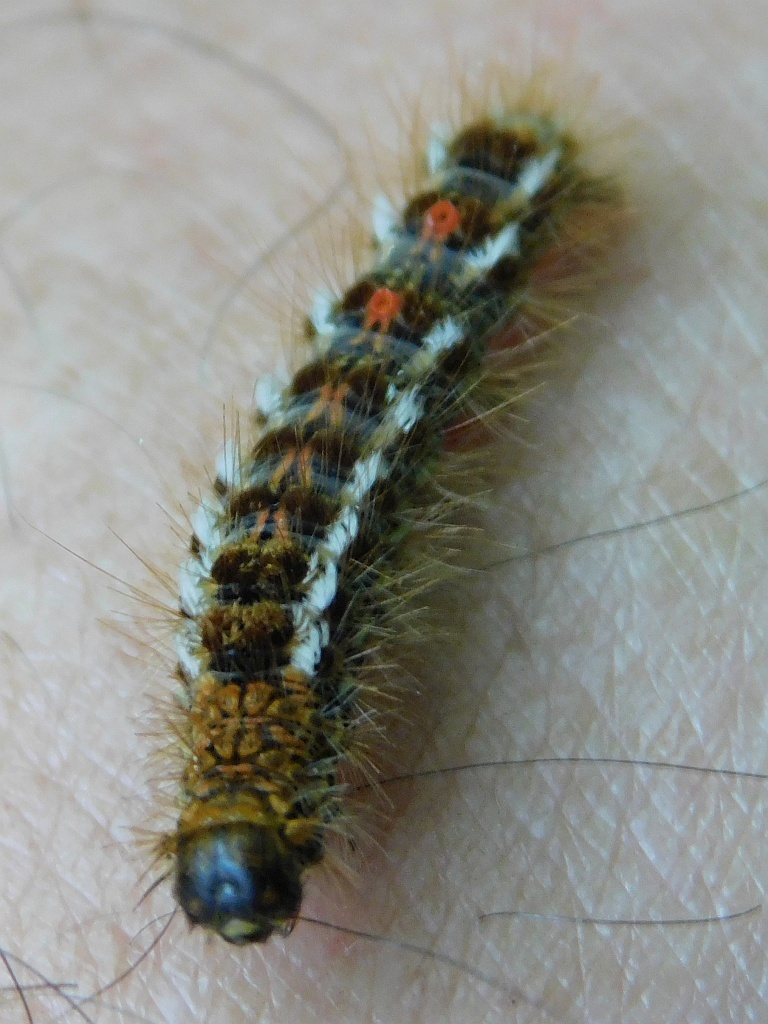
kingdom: Animalia
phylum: Arthropoda
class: Insecta
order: Lepidoptera
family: Erebidae
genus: Euproctis
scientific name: Euproctis chrysorrhoea
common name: Brown-tail
